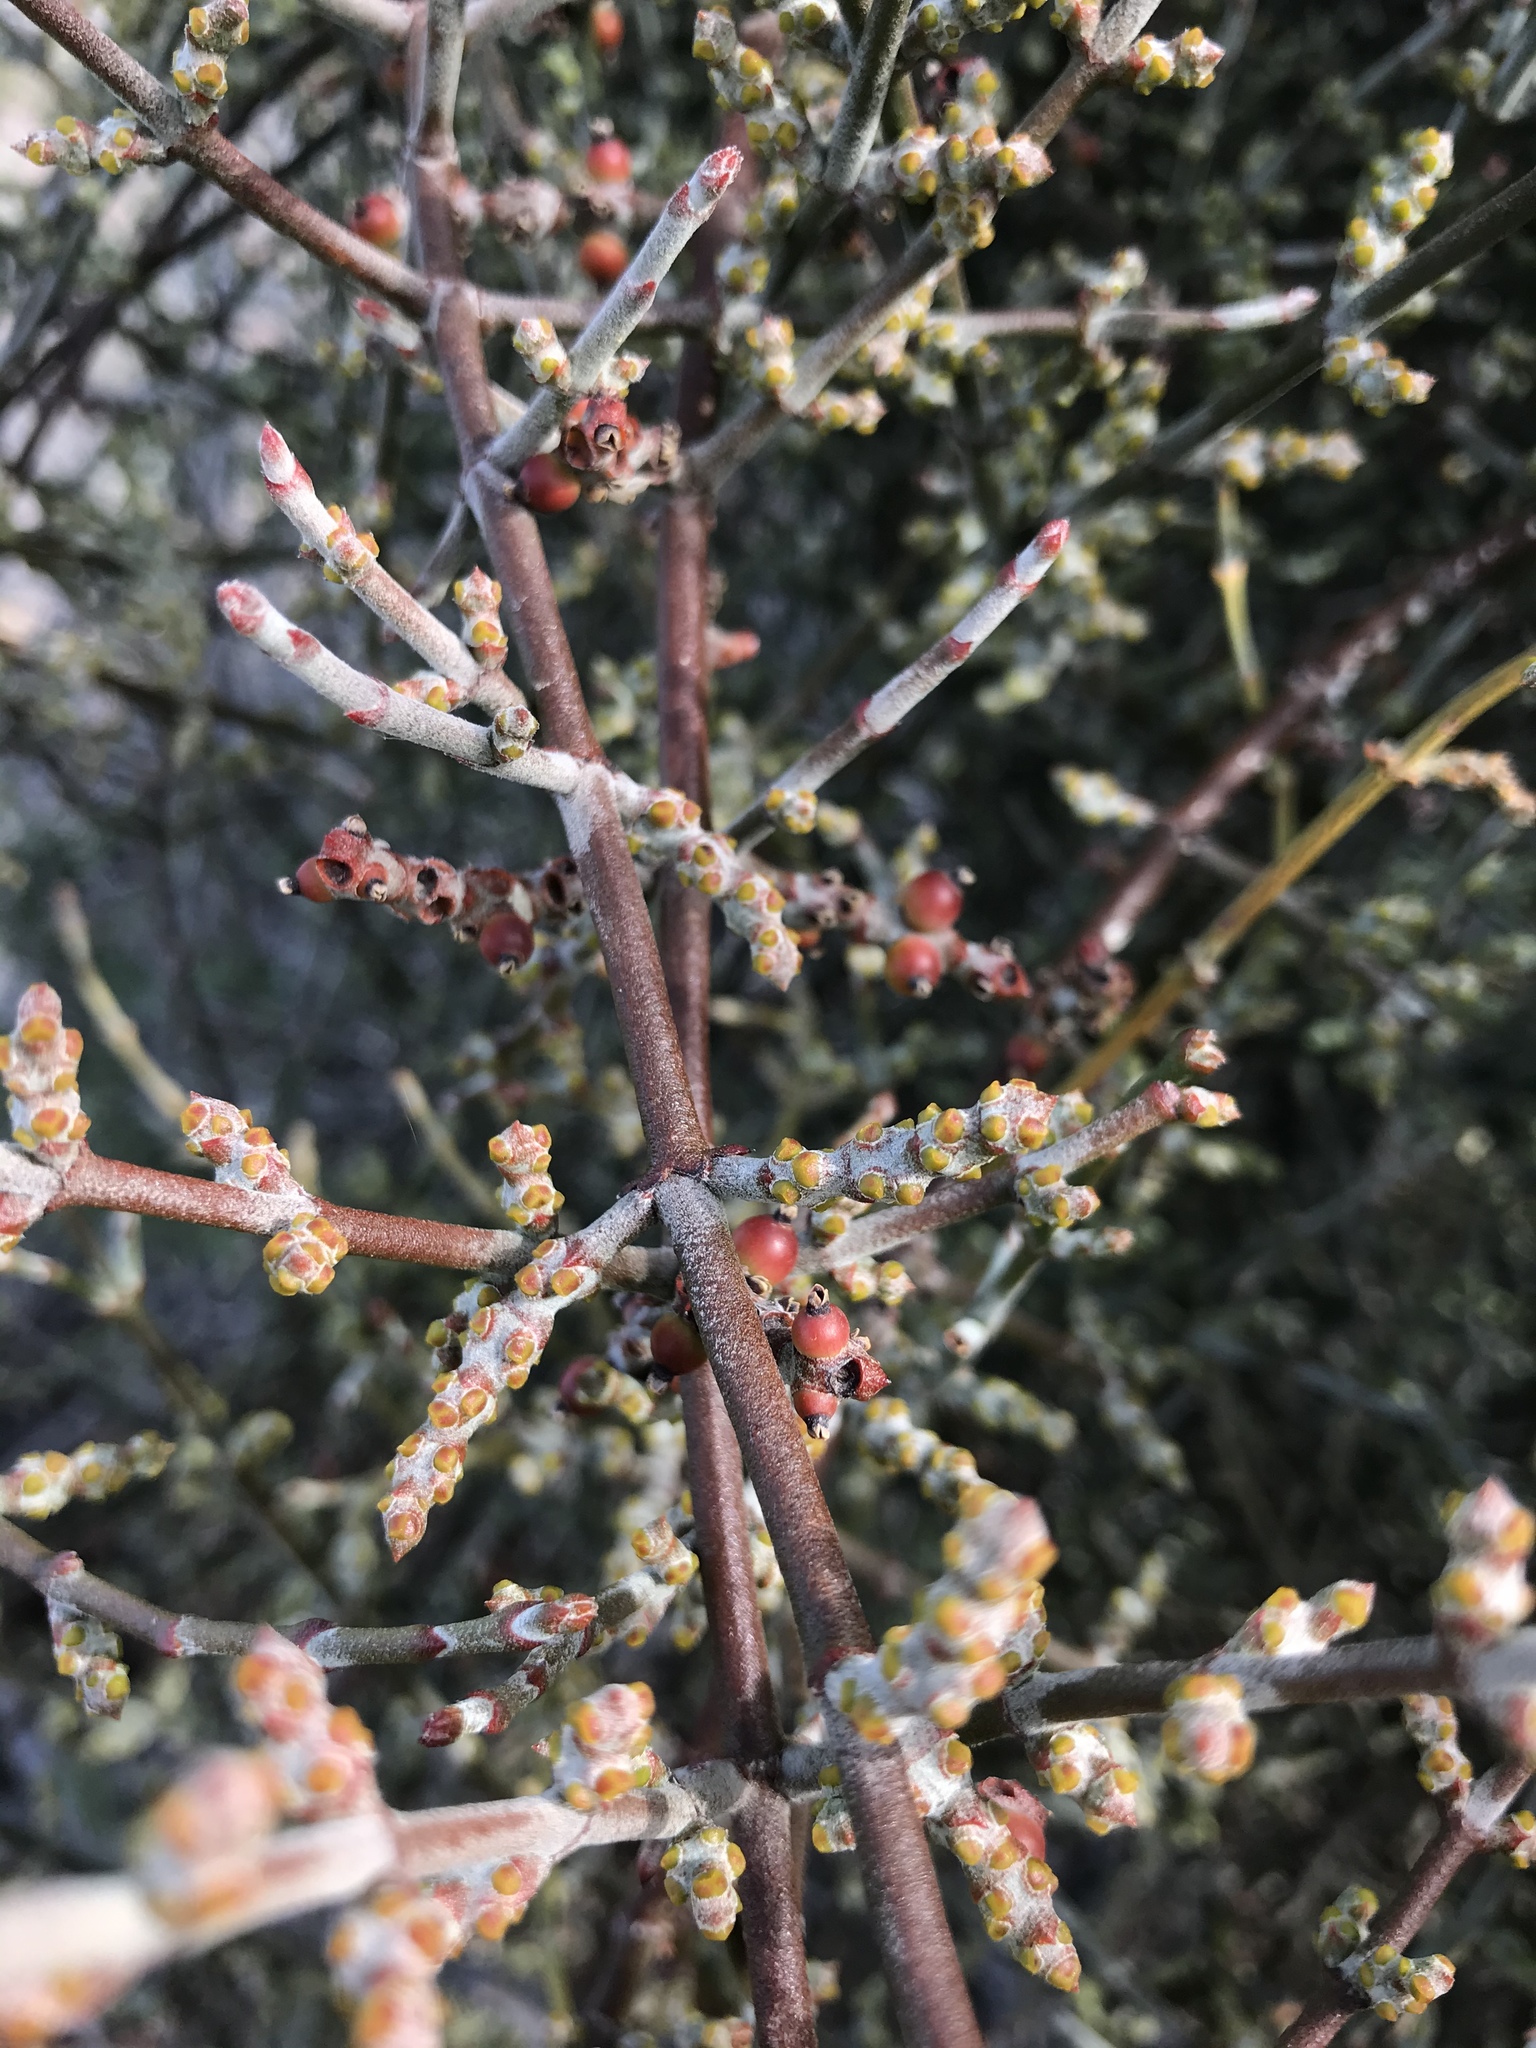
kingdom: Plantae
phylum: Tracheophyta
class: Magnoliopsida
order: Santalales
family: Viscaceae
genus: Phoradendron
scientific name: Phoradendron californicum
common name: Acacia mistletoe
